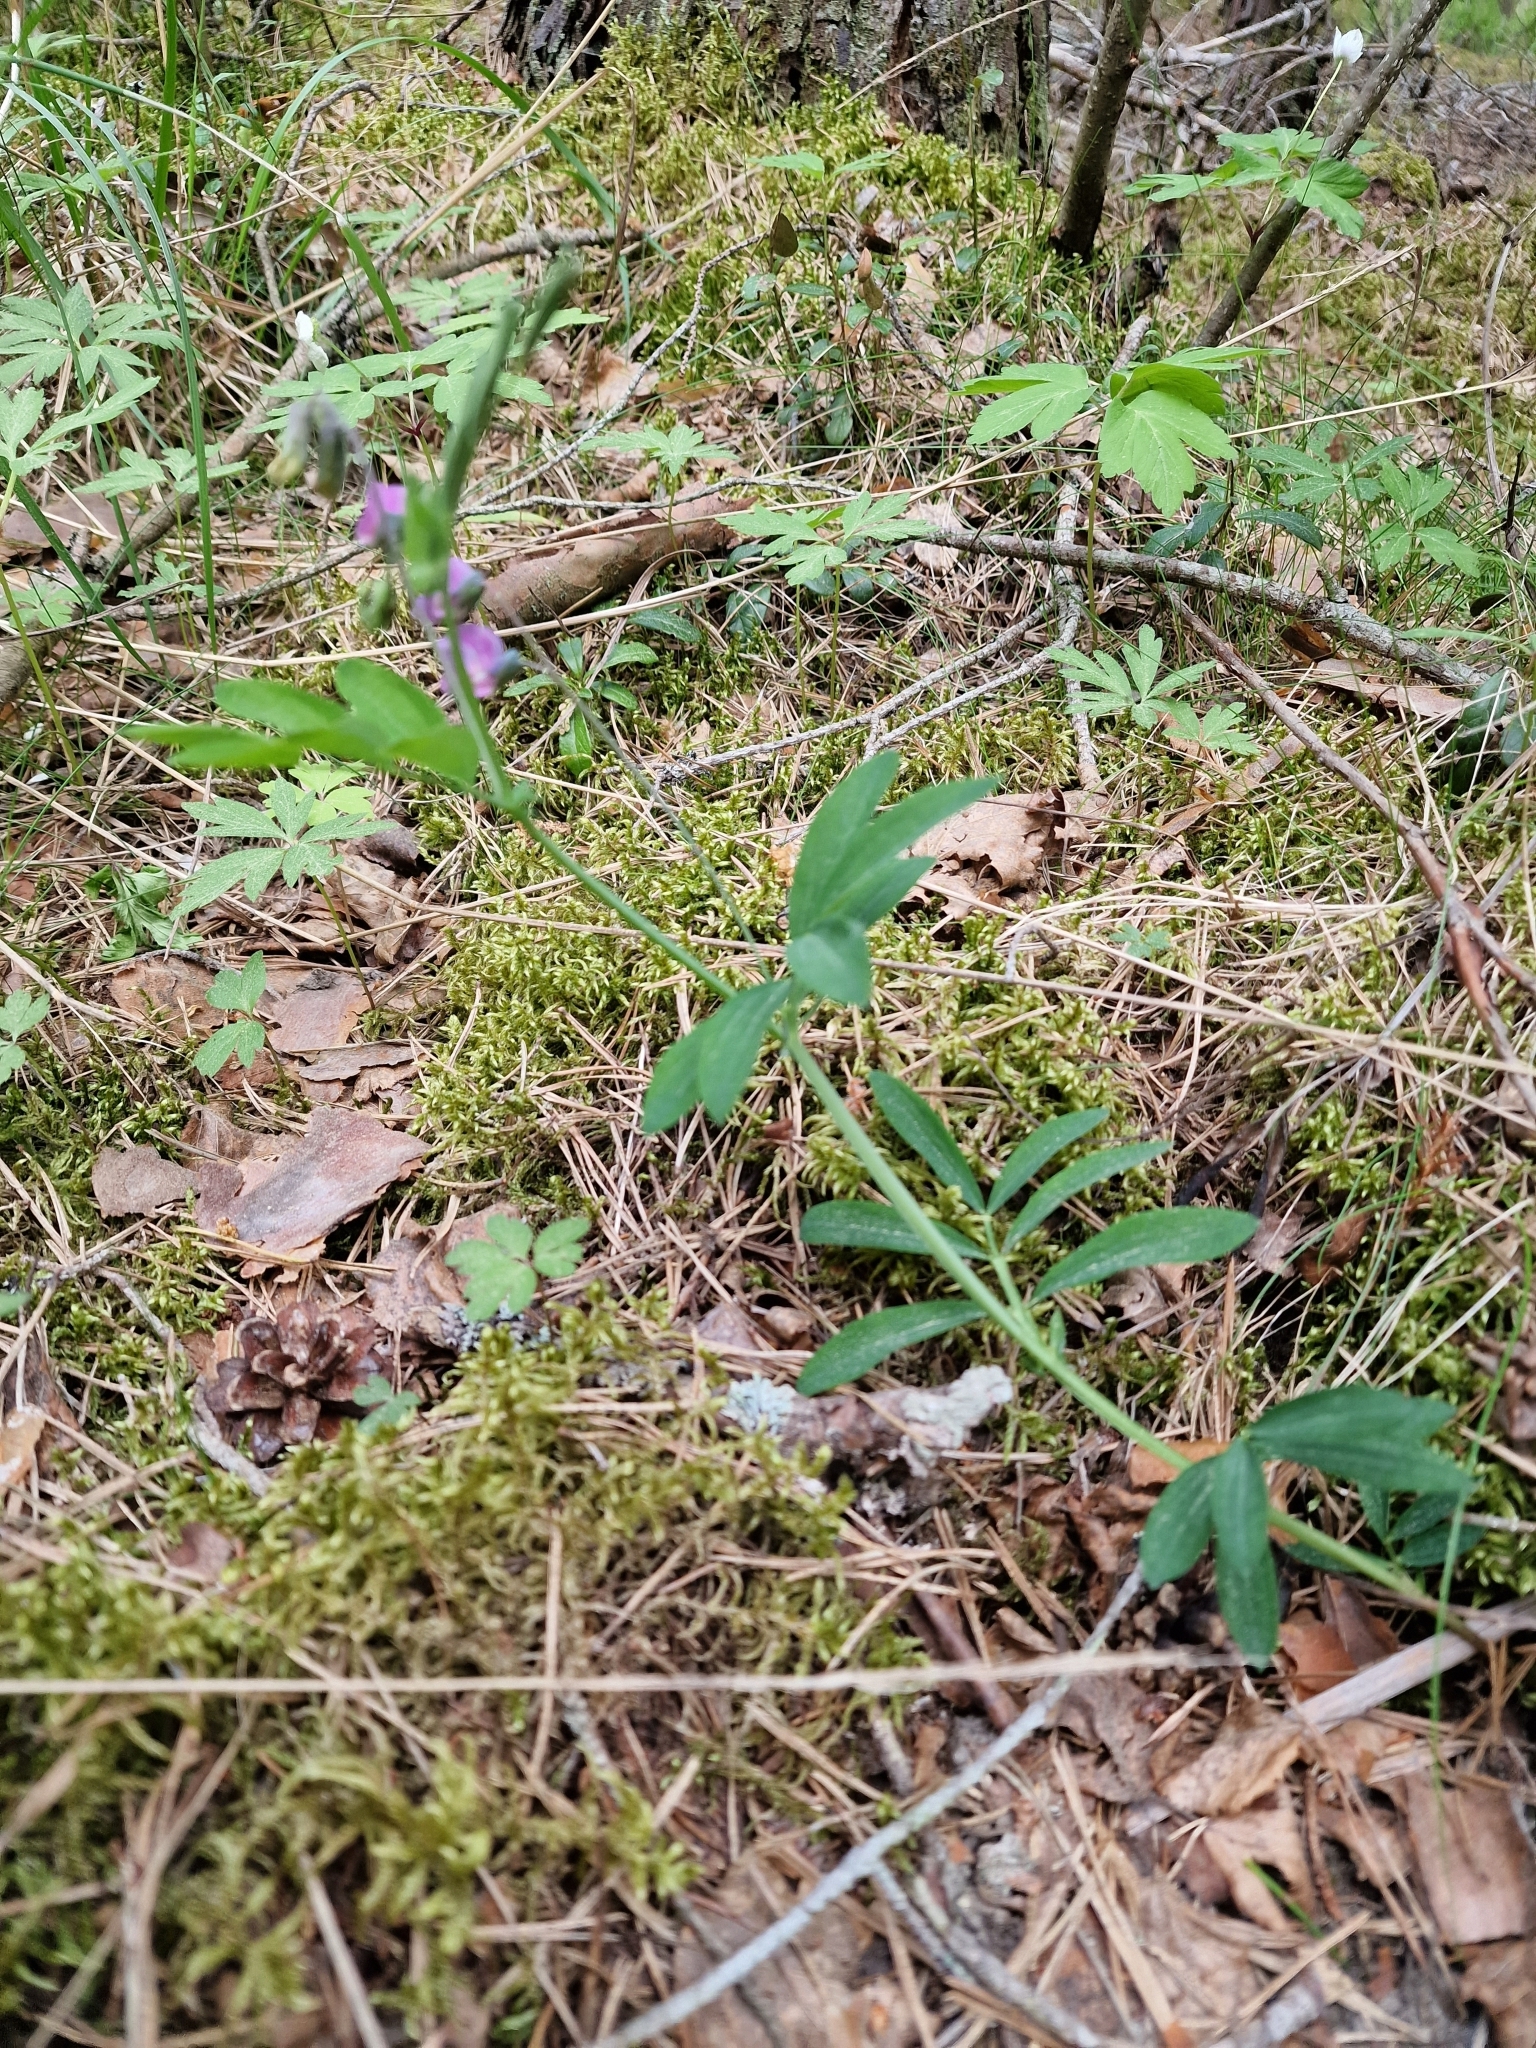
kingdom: Plantae
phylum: Tracheophyta
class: Magnoliopsida
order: Fabales
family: Fabaceae
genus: Lathyrus
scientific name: Lathyrus linifolius
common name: Bitter-vetch
